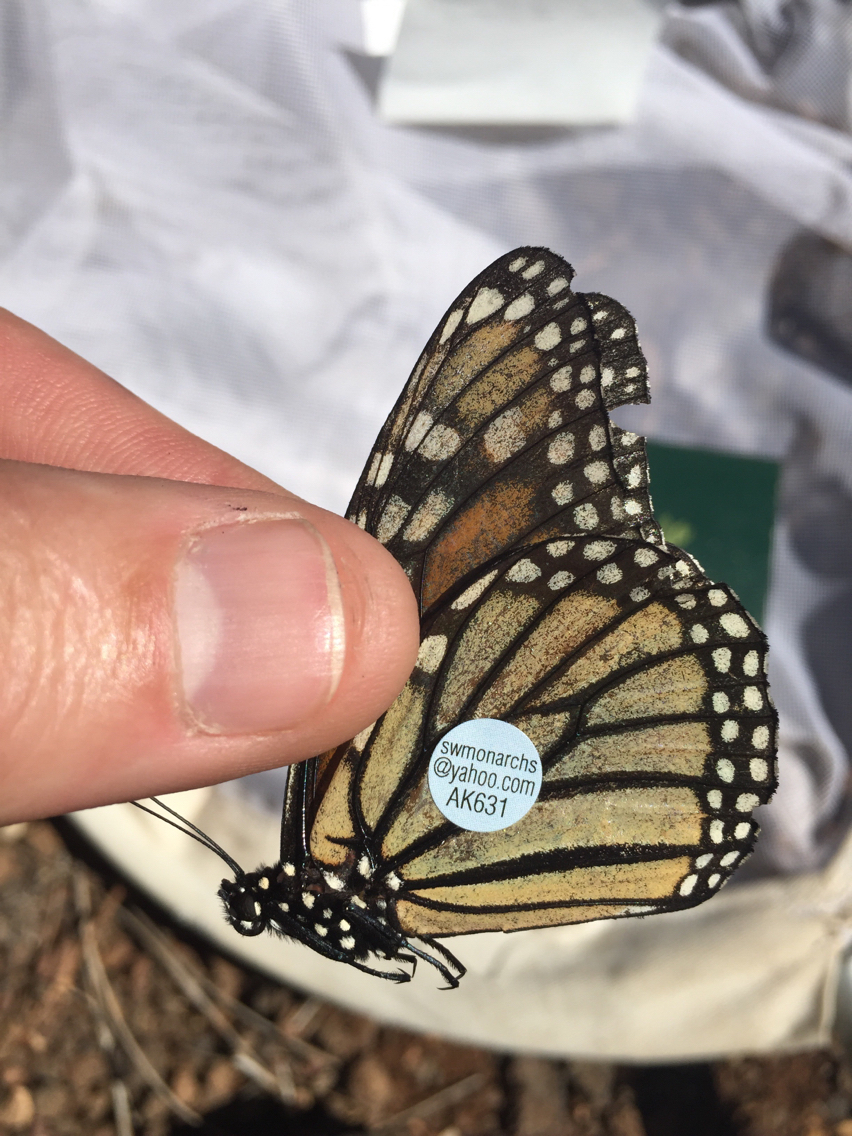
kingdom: Animalia
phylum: Arthropoda
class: Insecta
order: Lepidoptera
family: Nymphalidae
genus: Danaus
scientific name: Danaus plexippus
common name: Monarch
